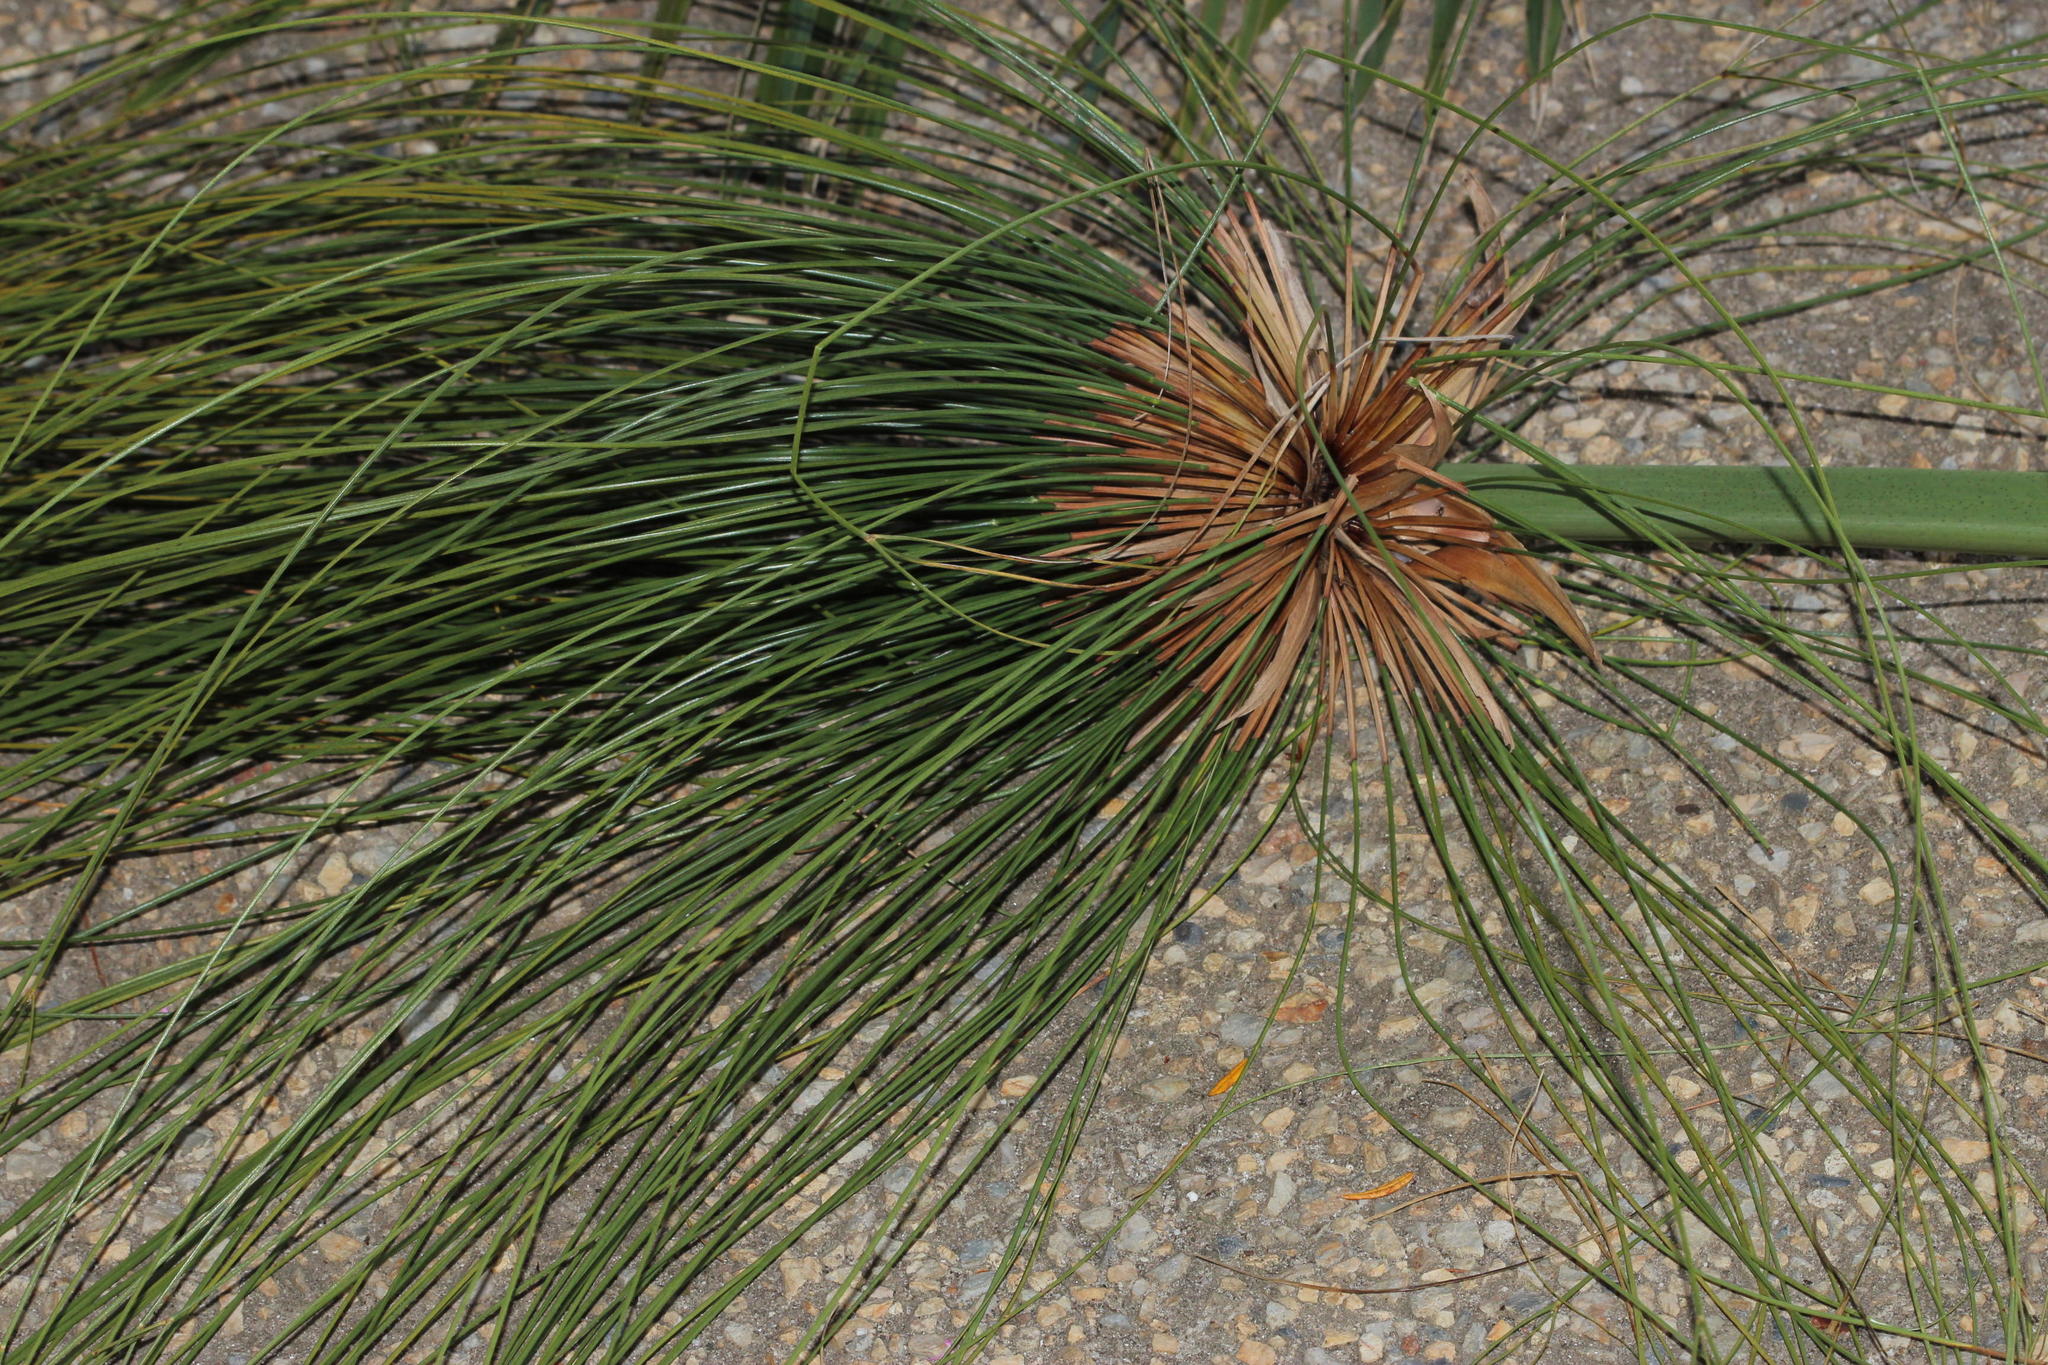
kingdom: Plantae
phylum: Tracheophyta
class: Liliopsida
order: Poales
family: Cyperaceae
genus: Cyperus
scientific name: Cyperus papyrus
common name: Papyrus
